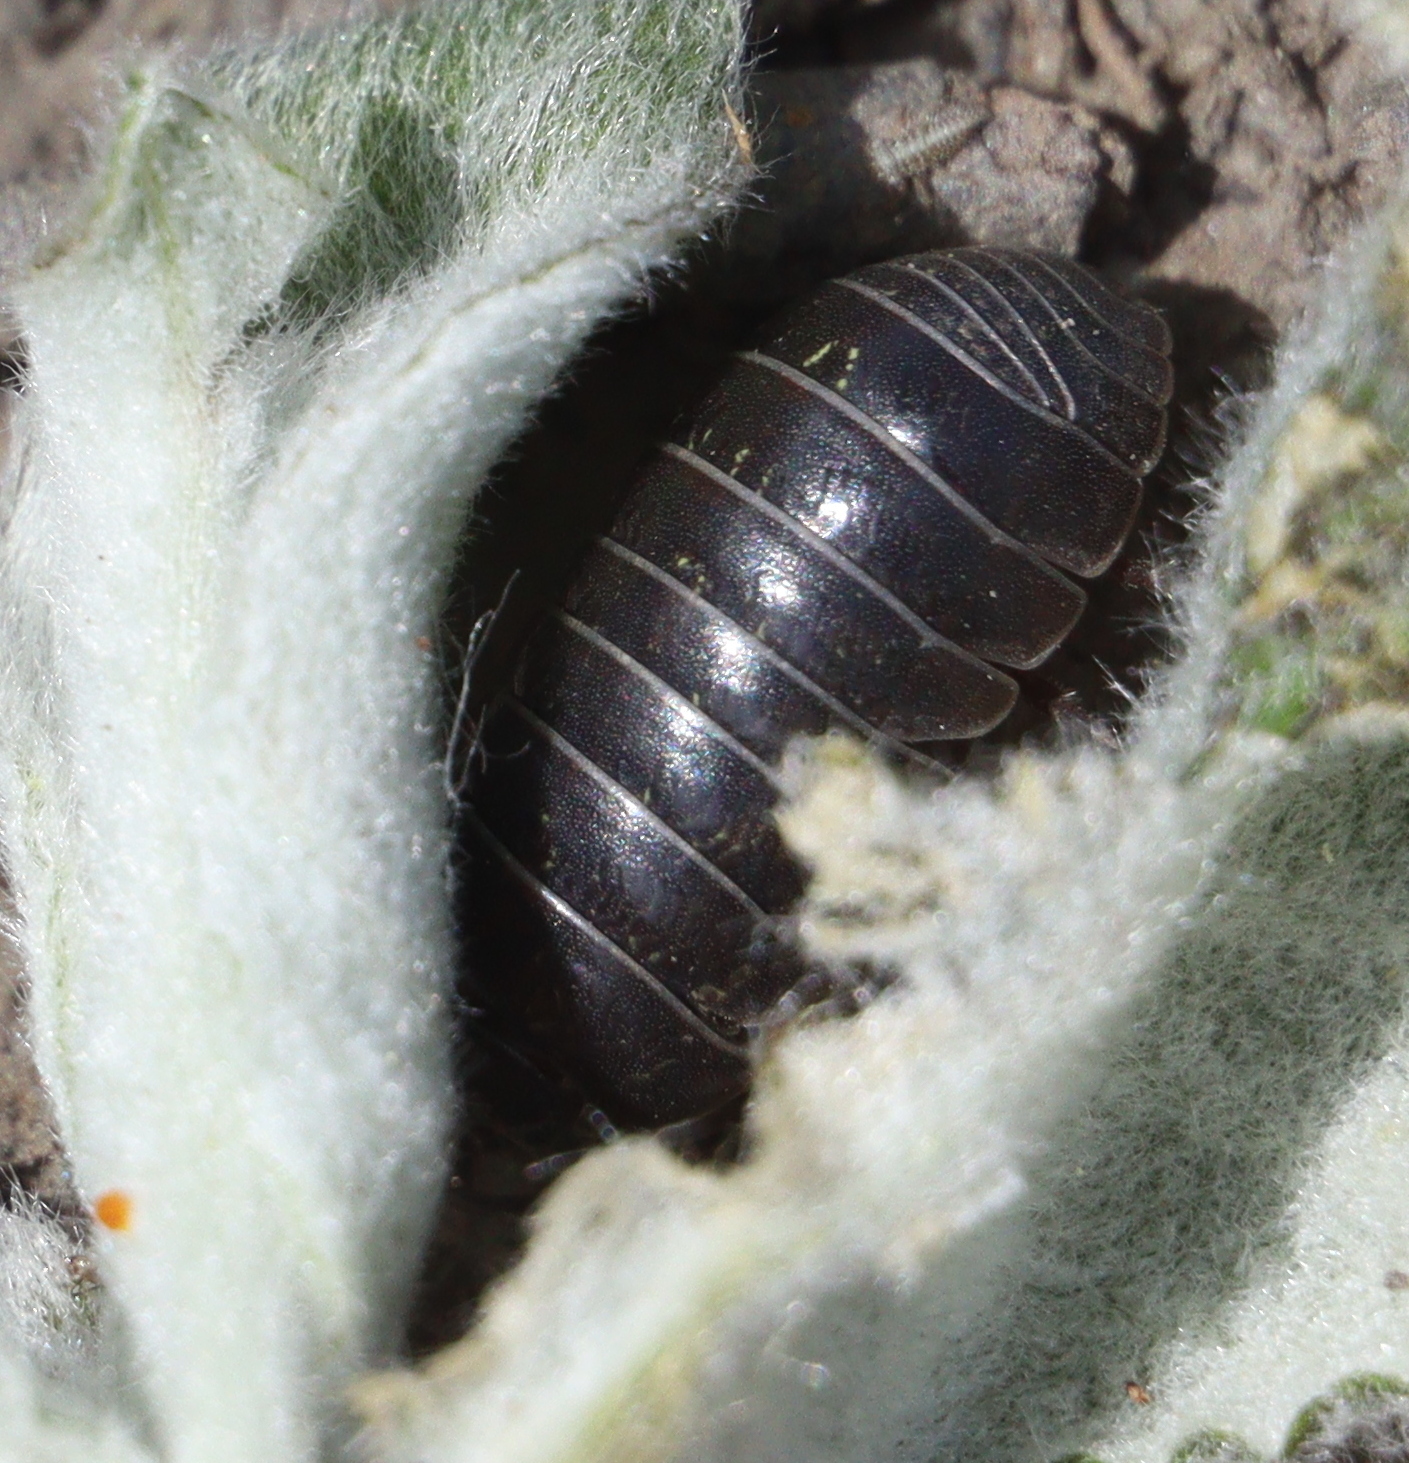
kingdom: Animalia
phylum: Arthropoda
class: Malacostraca
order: Isopoda
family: Armadillidiidae
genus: Armadillidium
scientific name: Armadillidium vulgare
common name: Common pill woodlouse
